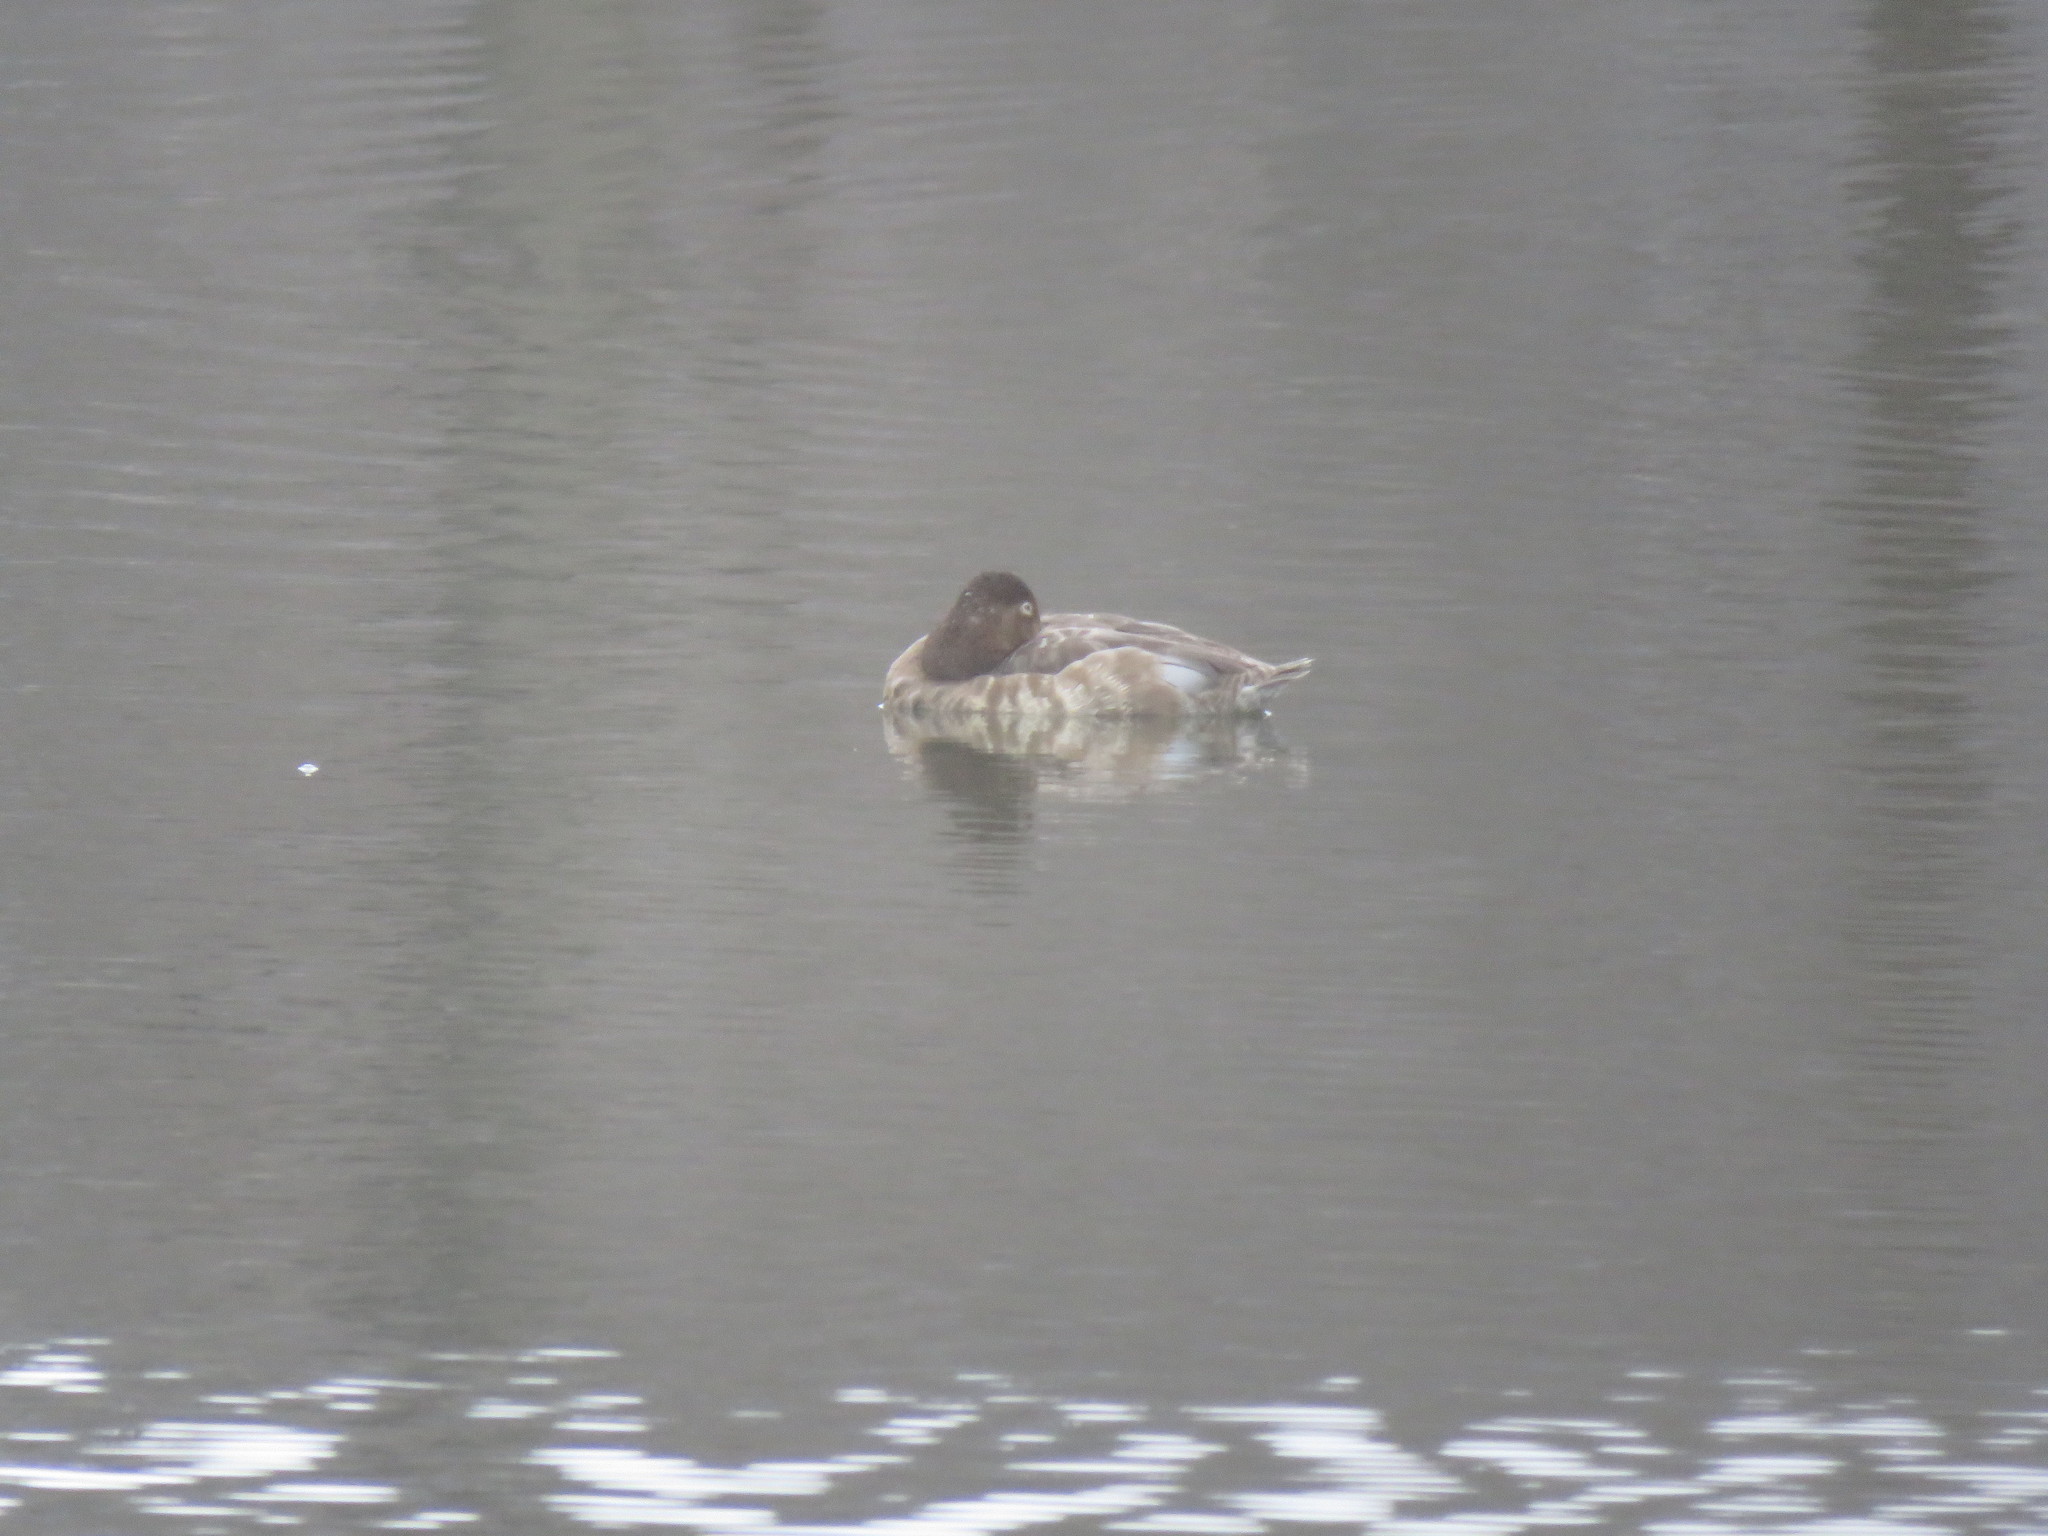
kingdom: Animalia
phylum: Chordata
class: Aves
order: Anseriformes
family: Anatidae
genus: Aythya
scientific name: Aythya americana
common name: Redhead
